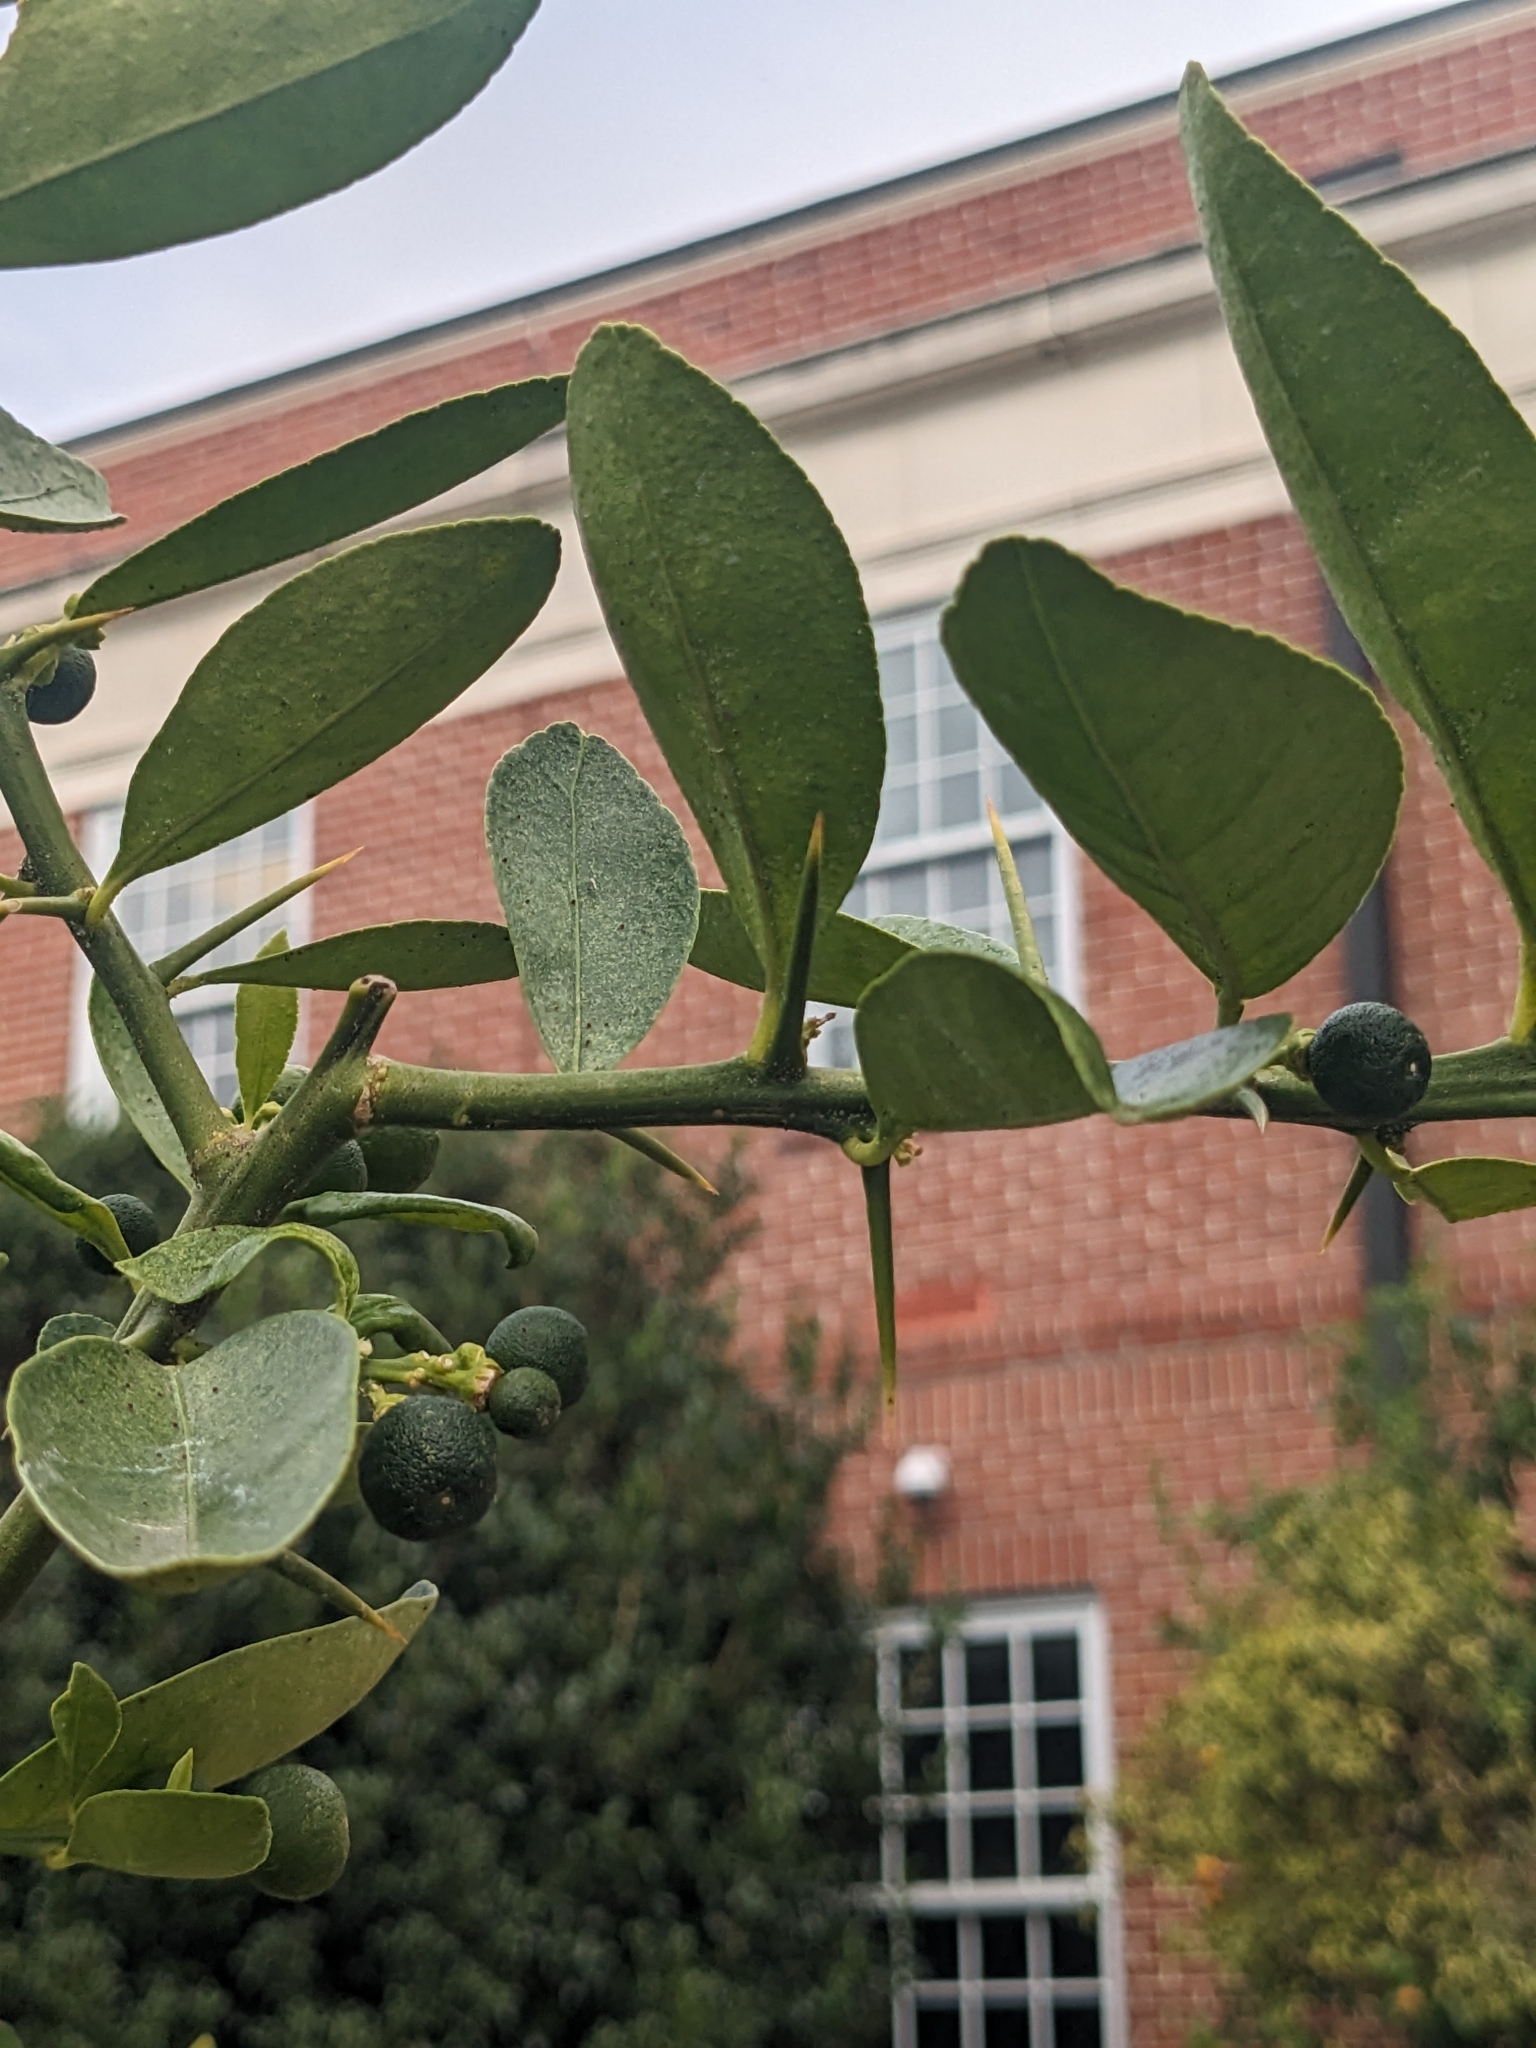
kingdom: Animalia
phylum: Arthropoda
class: Arachnida
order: Trombidiformes
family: Tetranychidae
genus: Eutetranychus
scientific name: Eutetranychus banksi
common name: Texas citrus mite
